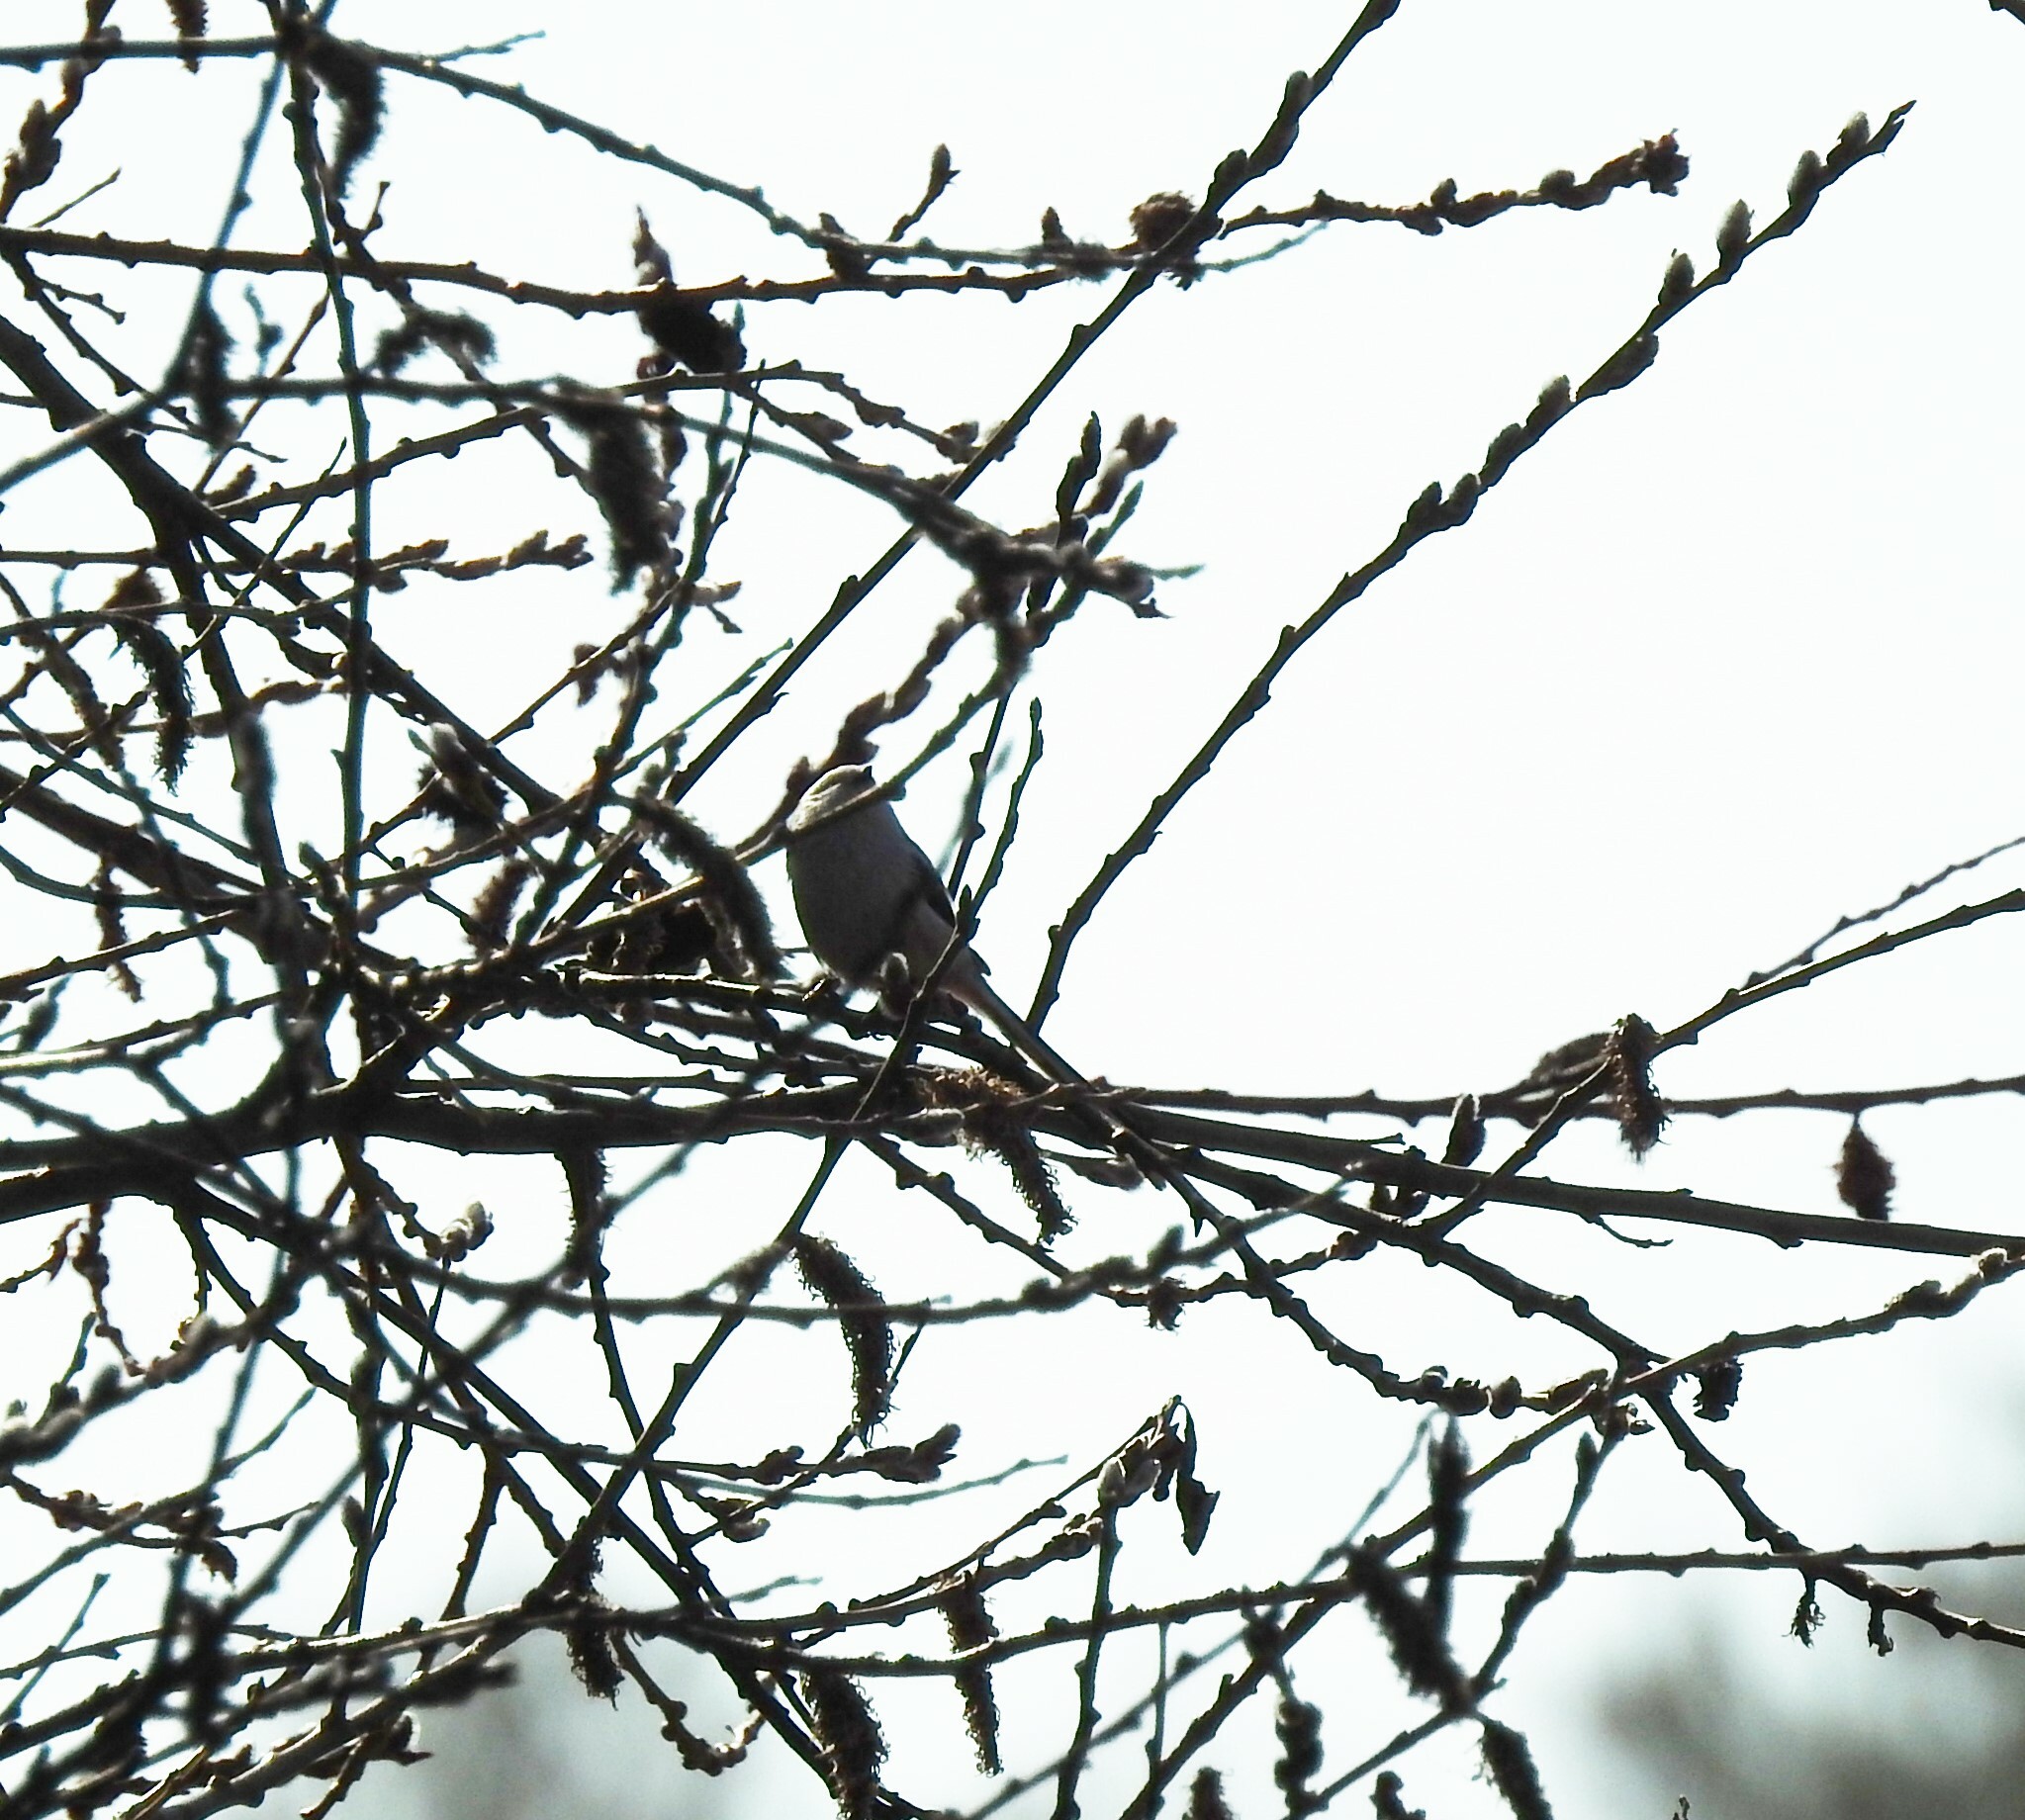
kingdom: Animalia
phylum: Chordata
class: Aves
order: Passeriformes
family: Aegithalidae
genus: Aegithalos
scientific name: Aegithalos caudatus
